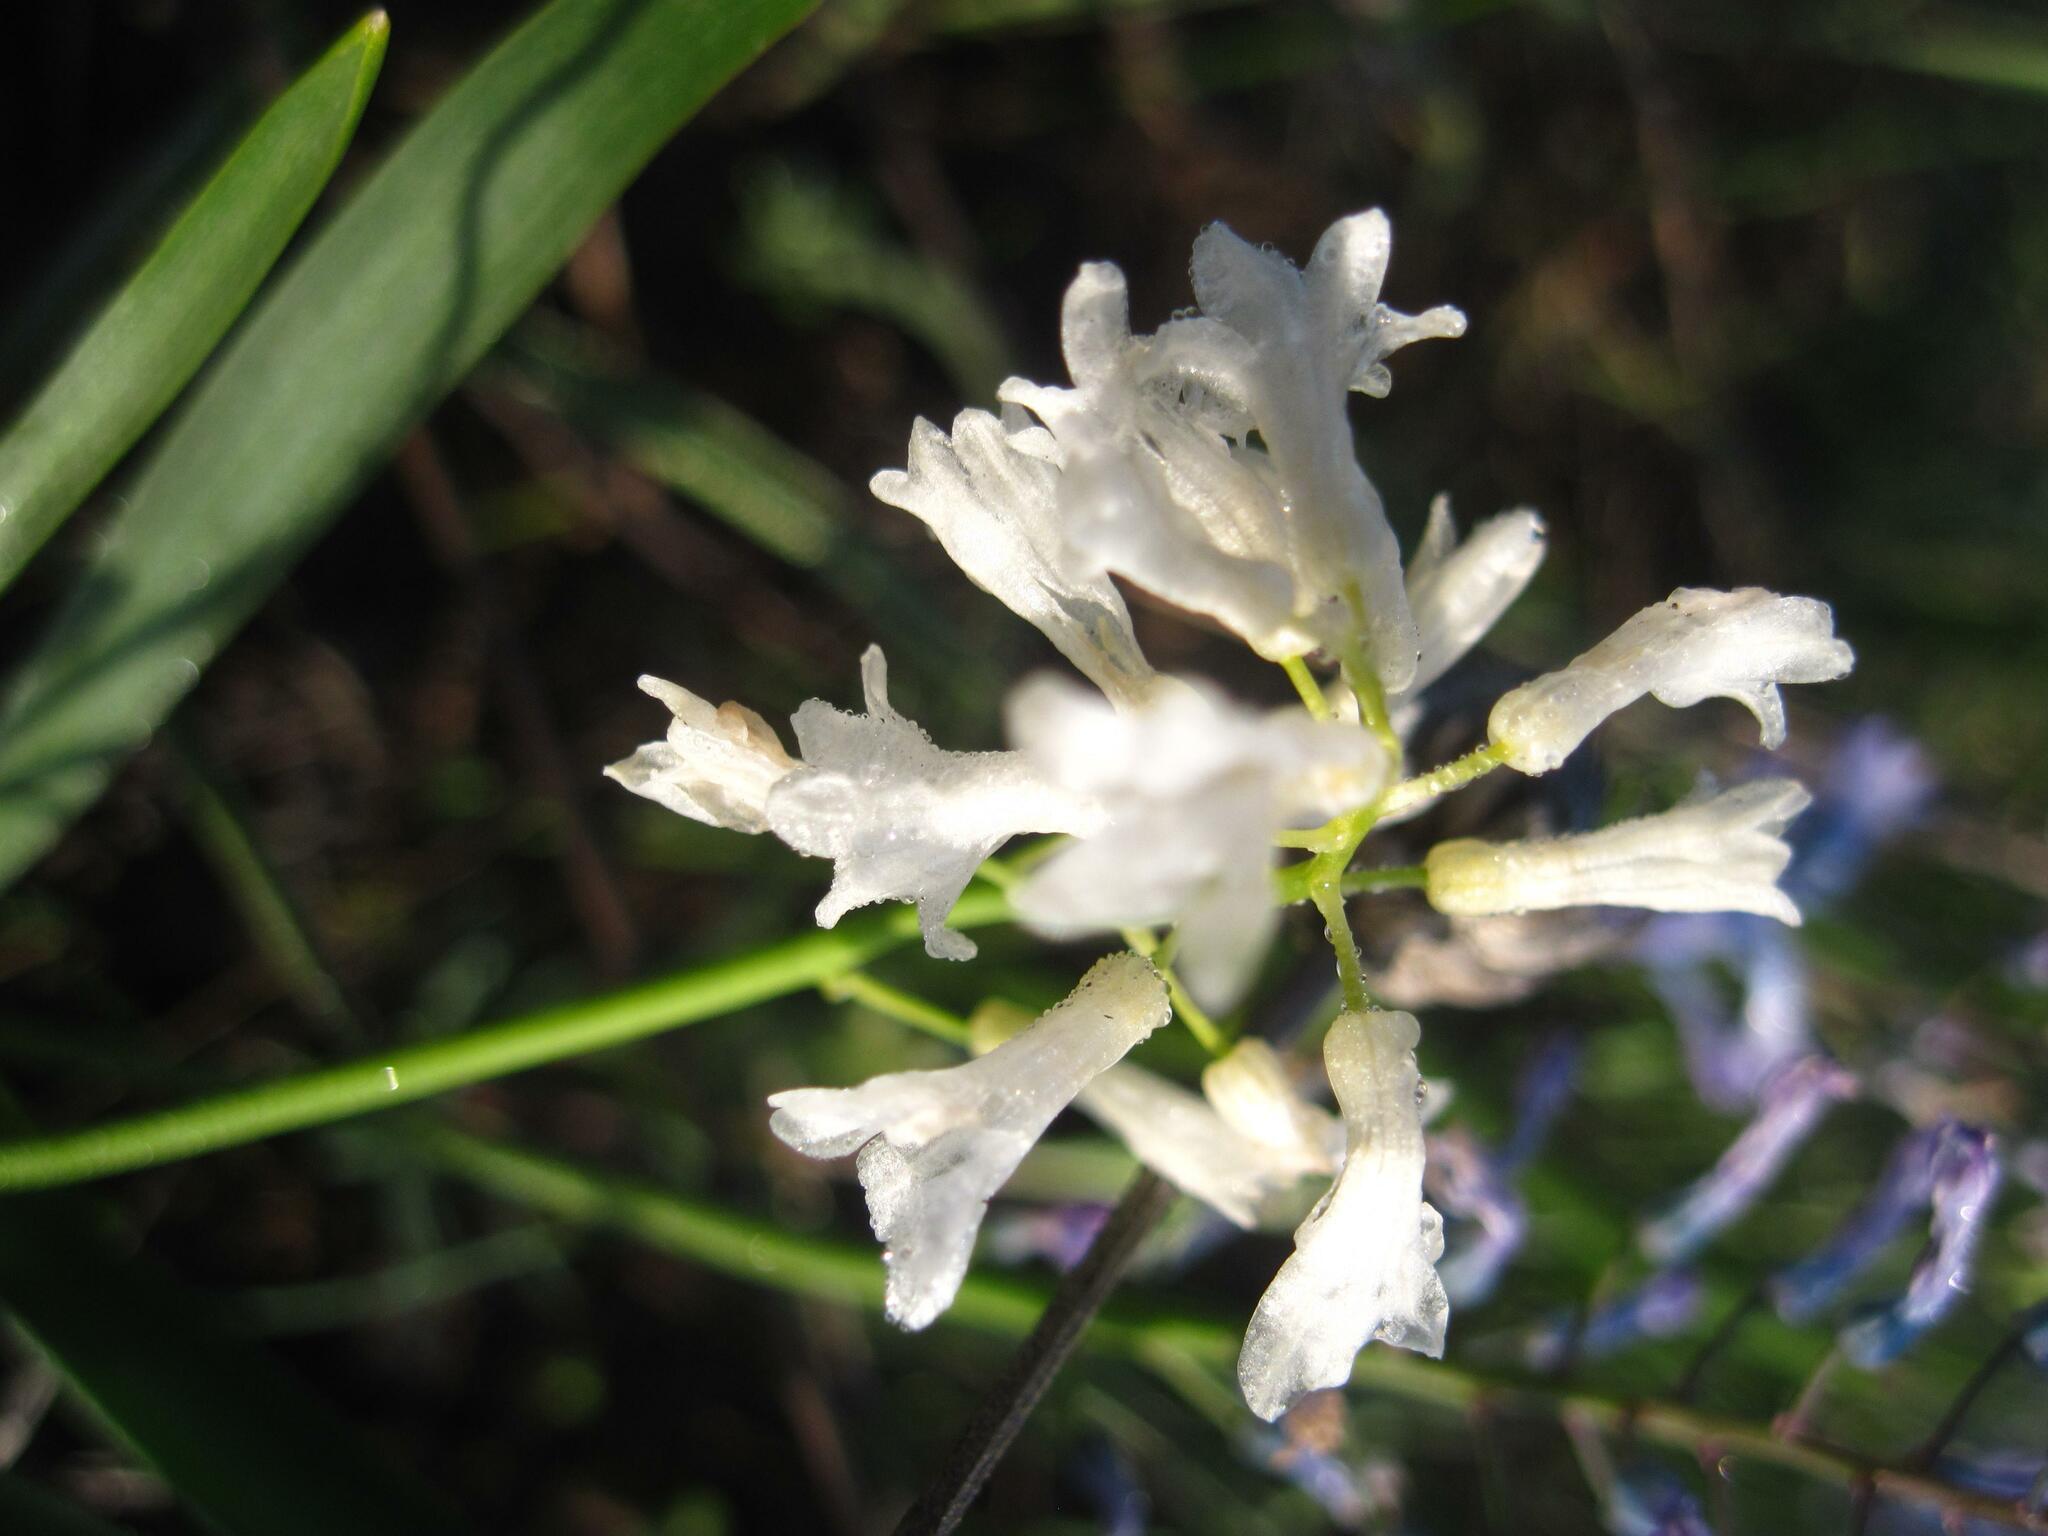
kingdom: Plantae
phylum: Tracheophyta
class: Liliopsida
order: Asparagales
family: Asparagaceae
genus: Hyacinthella
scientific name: Hyacinthella pallasiana
